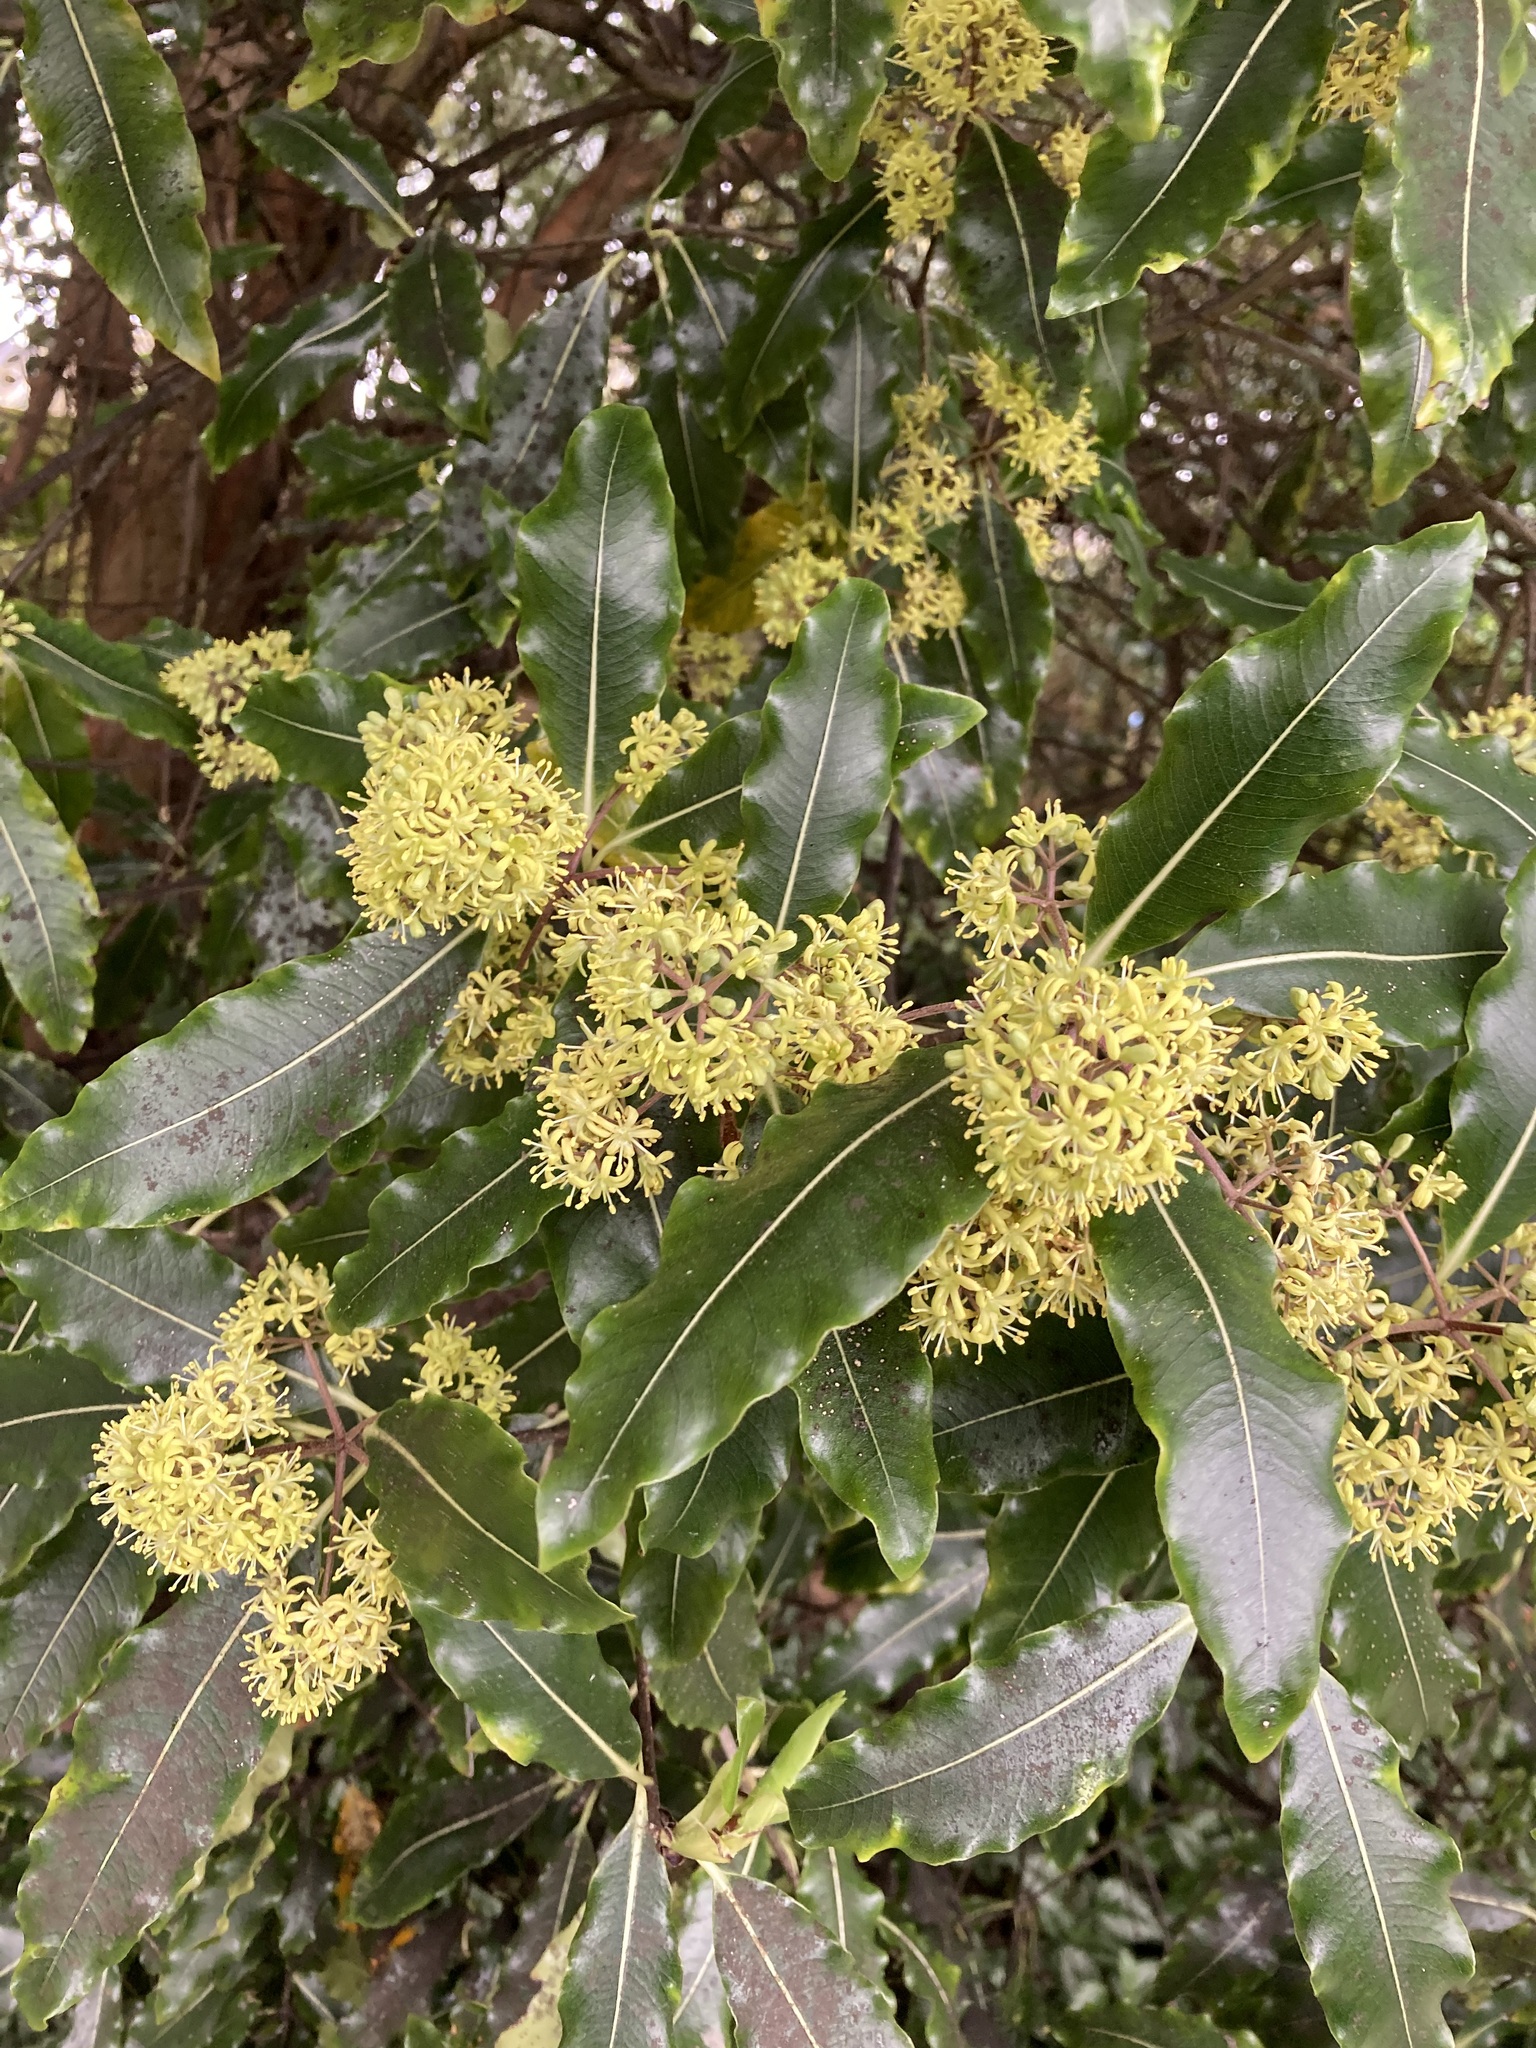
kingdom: Plantae
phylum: Tracheophyta
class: Magnoliopsida
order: Apiales
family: Pittosporaceae
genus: Pittosporum
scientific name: Pittosporum eugenioides
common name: Lemonwood
